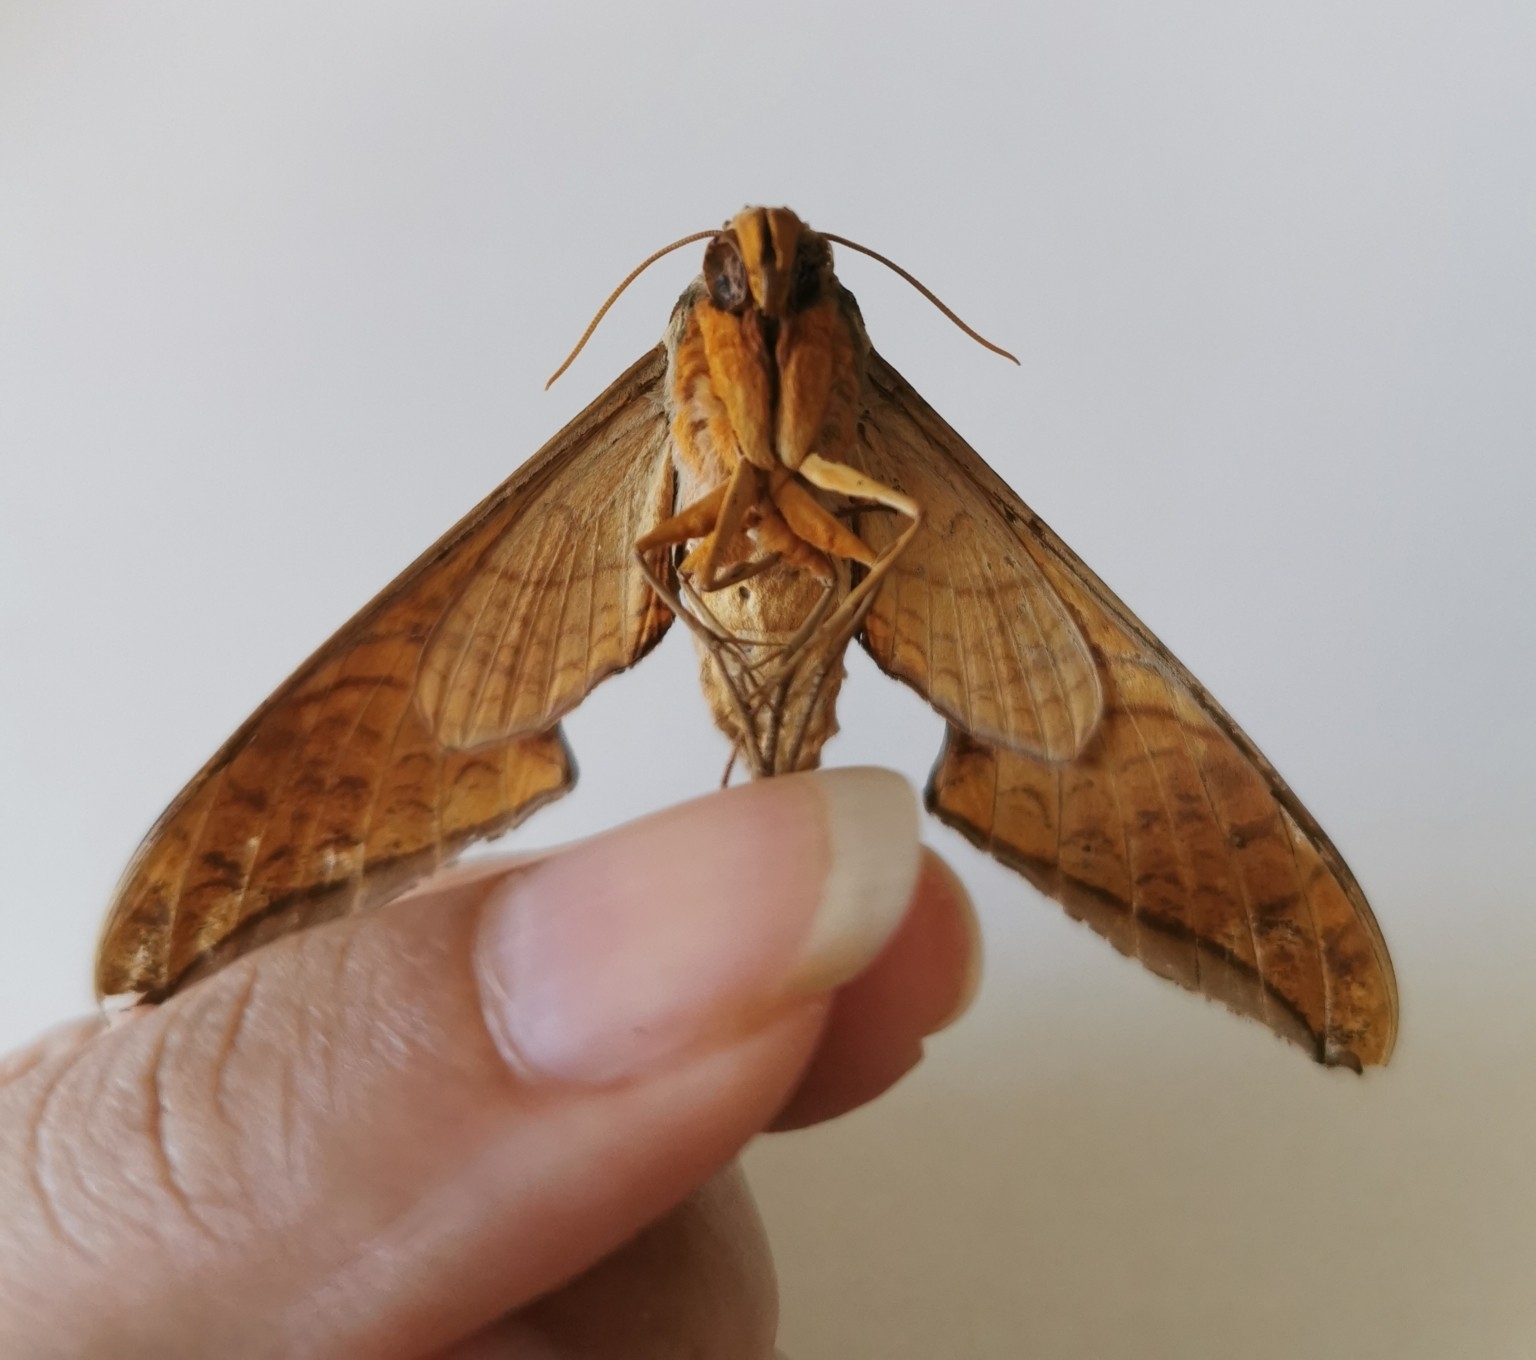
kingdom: Animalia
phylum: Arthropoda
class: Insecta
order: Lepidoptera
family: Sphingidae
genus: Protambulyx
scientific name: Protambulyx strigilis
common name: Streaked sphinx
